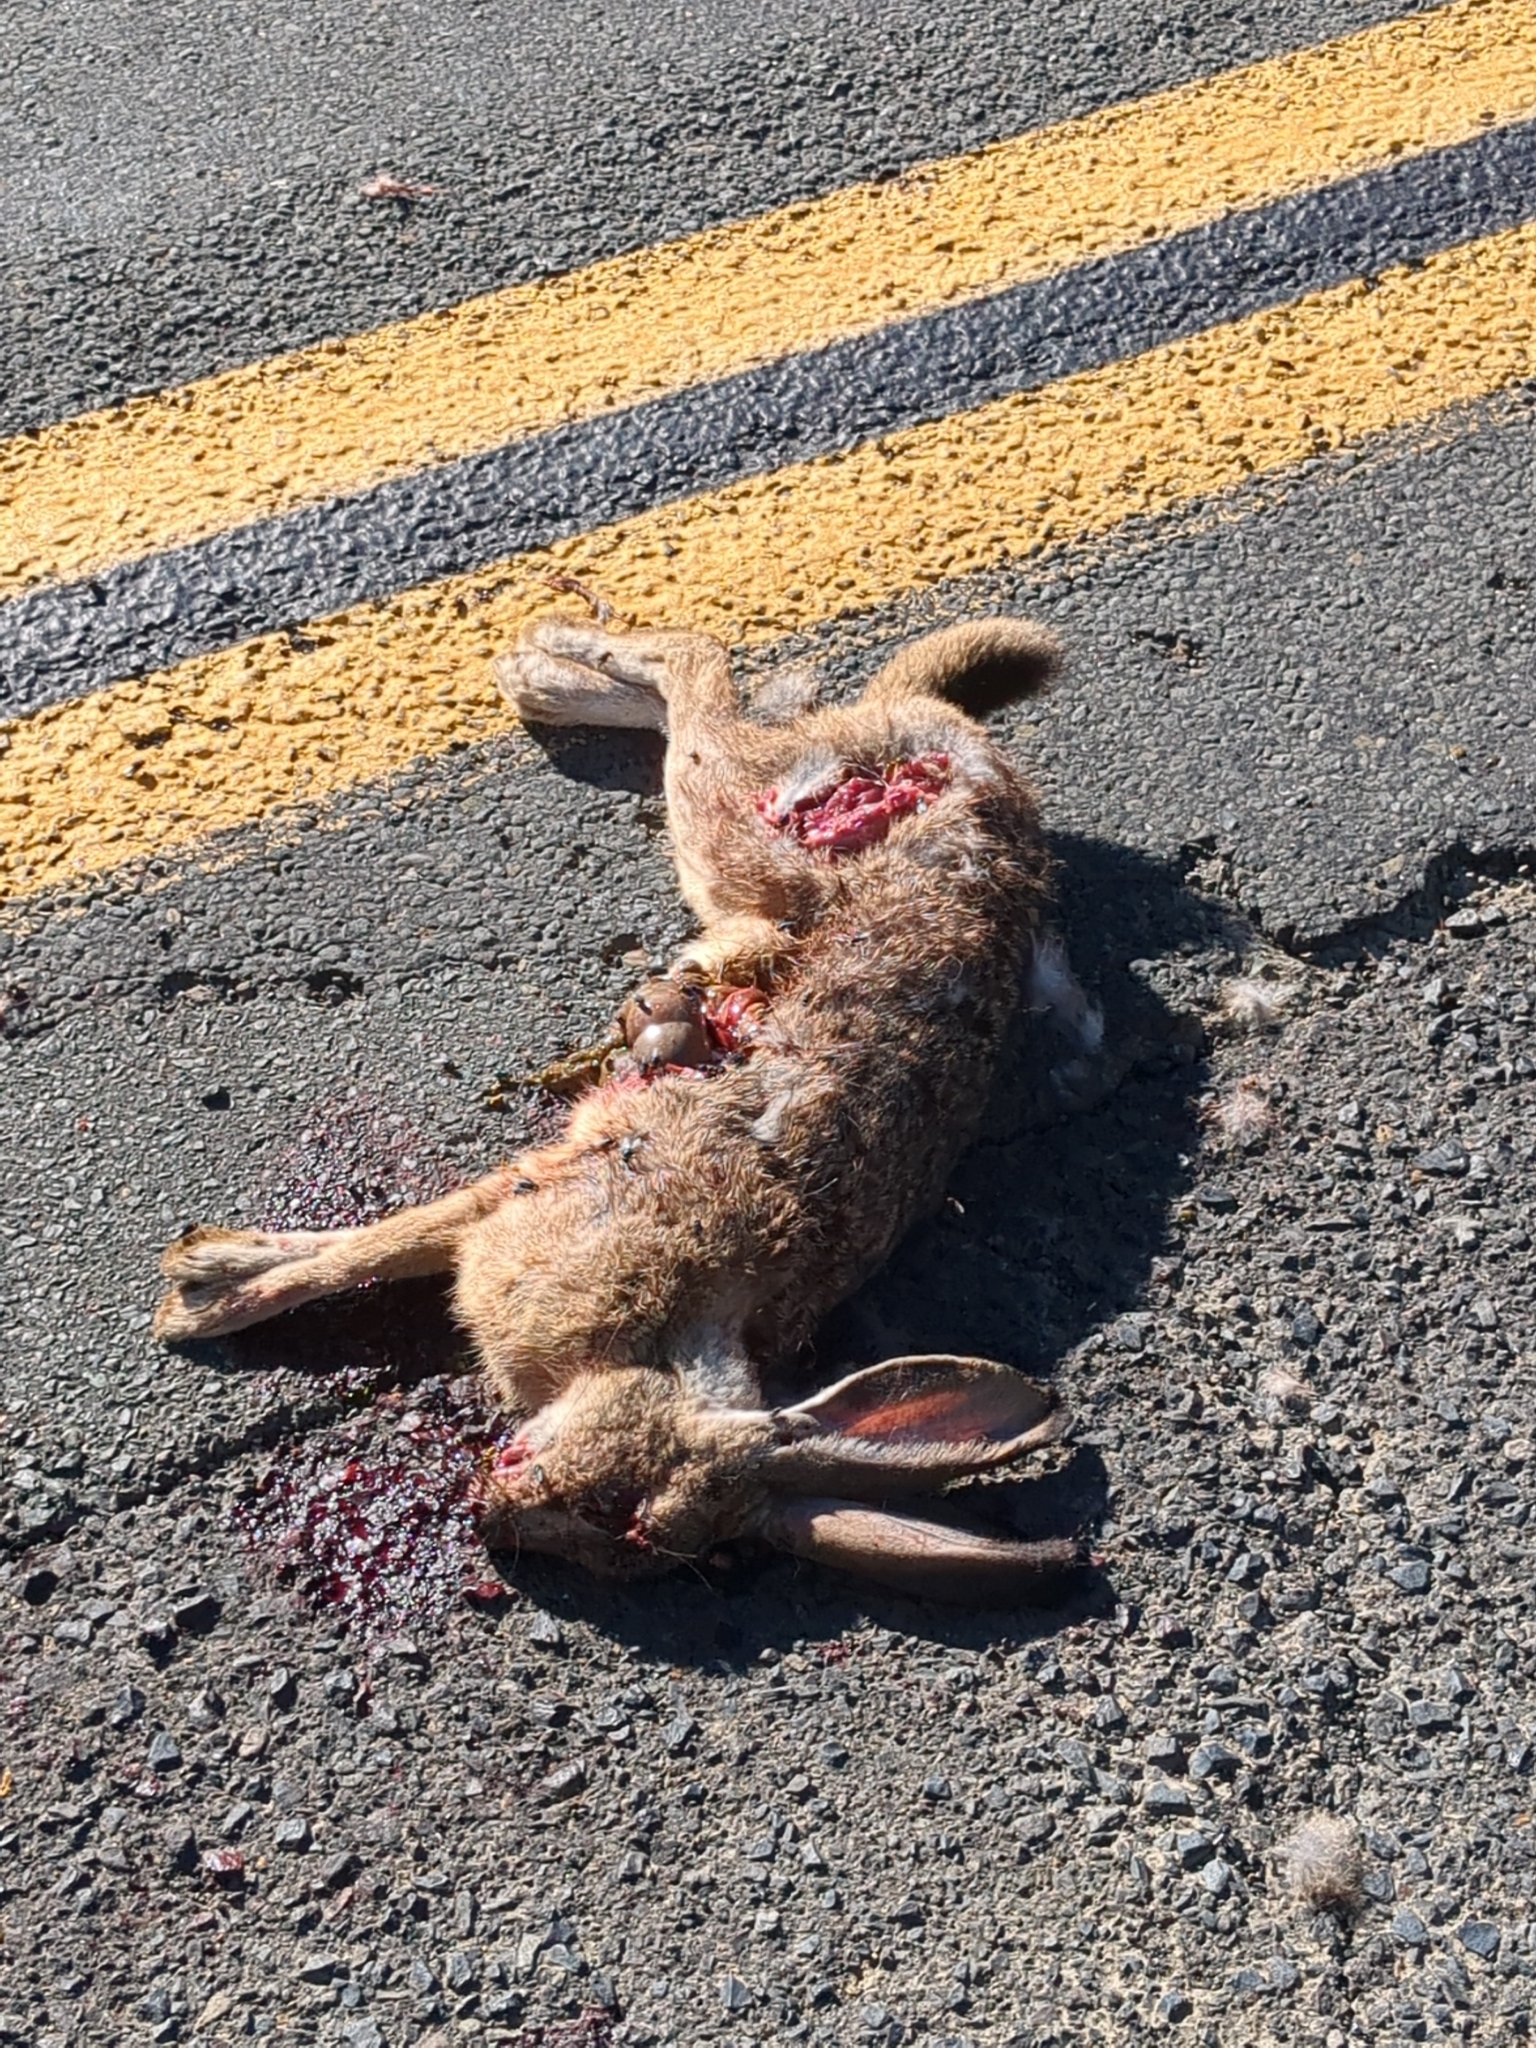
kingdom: Animalia
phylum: Chordata
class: Mammalia
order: Lagomorpha
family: Leporidae
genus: Lepus
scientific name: Lepus californicus
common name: Black-tailed jackrabbit
